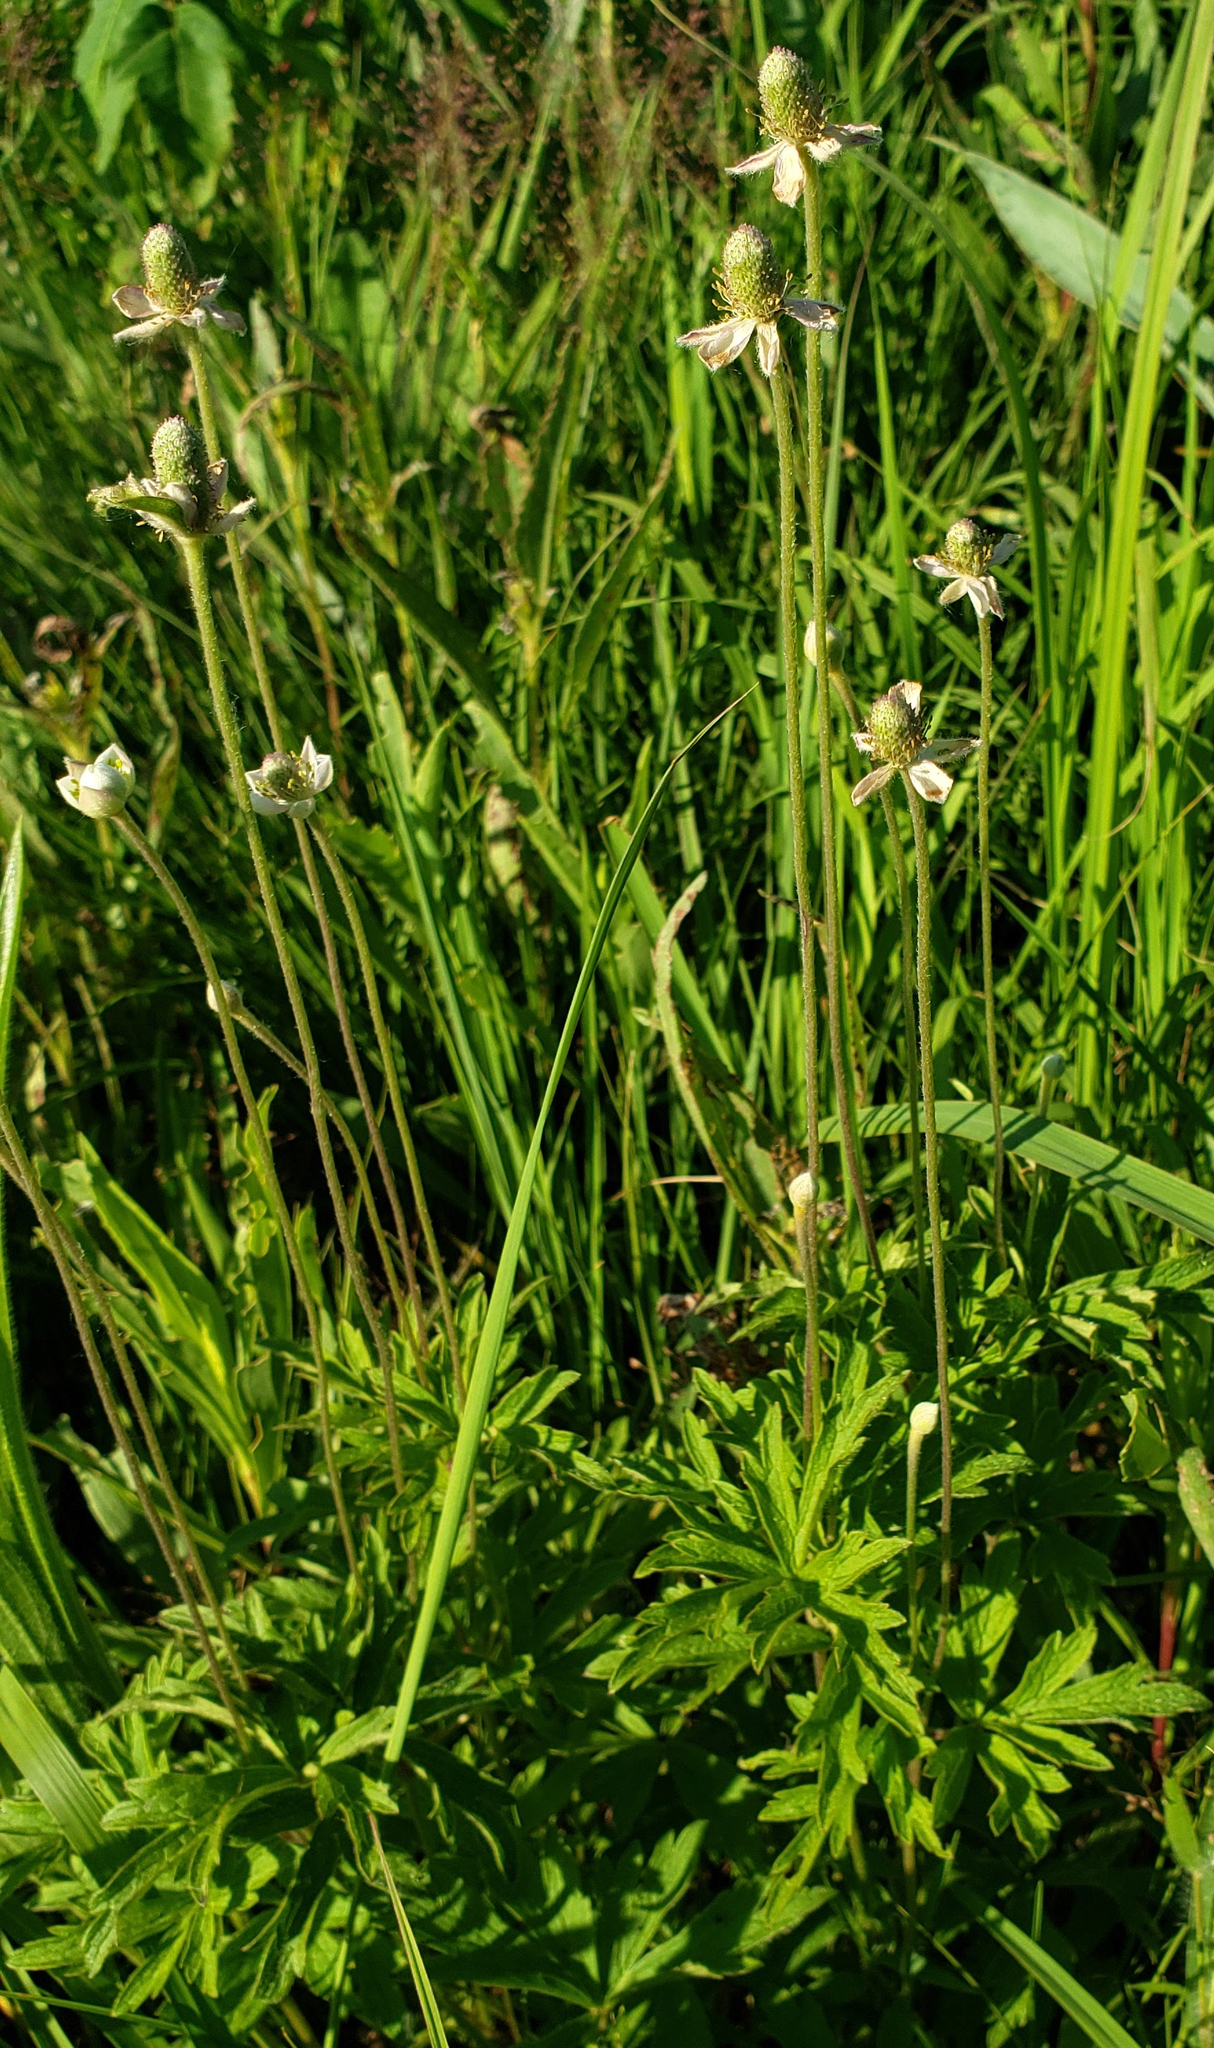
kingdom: Plantae
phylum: Tracheophyta
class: Magnoliopsida
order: Ranunculales
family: Ranunculaceae
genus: Anemone
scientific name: Anemone cylindrica
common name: Candle anemone
